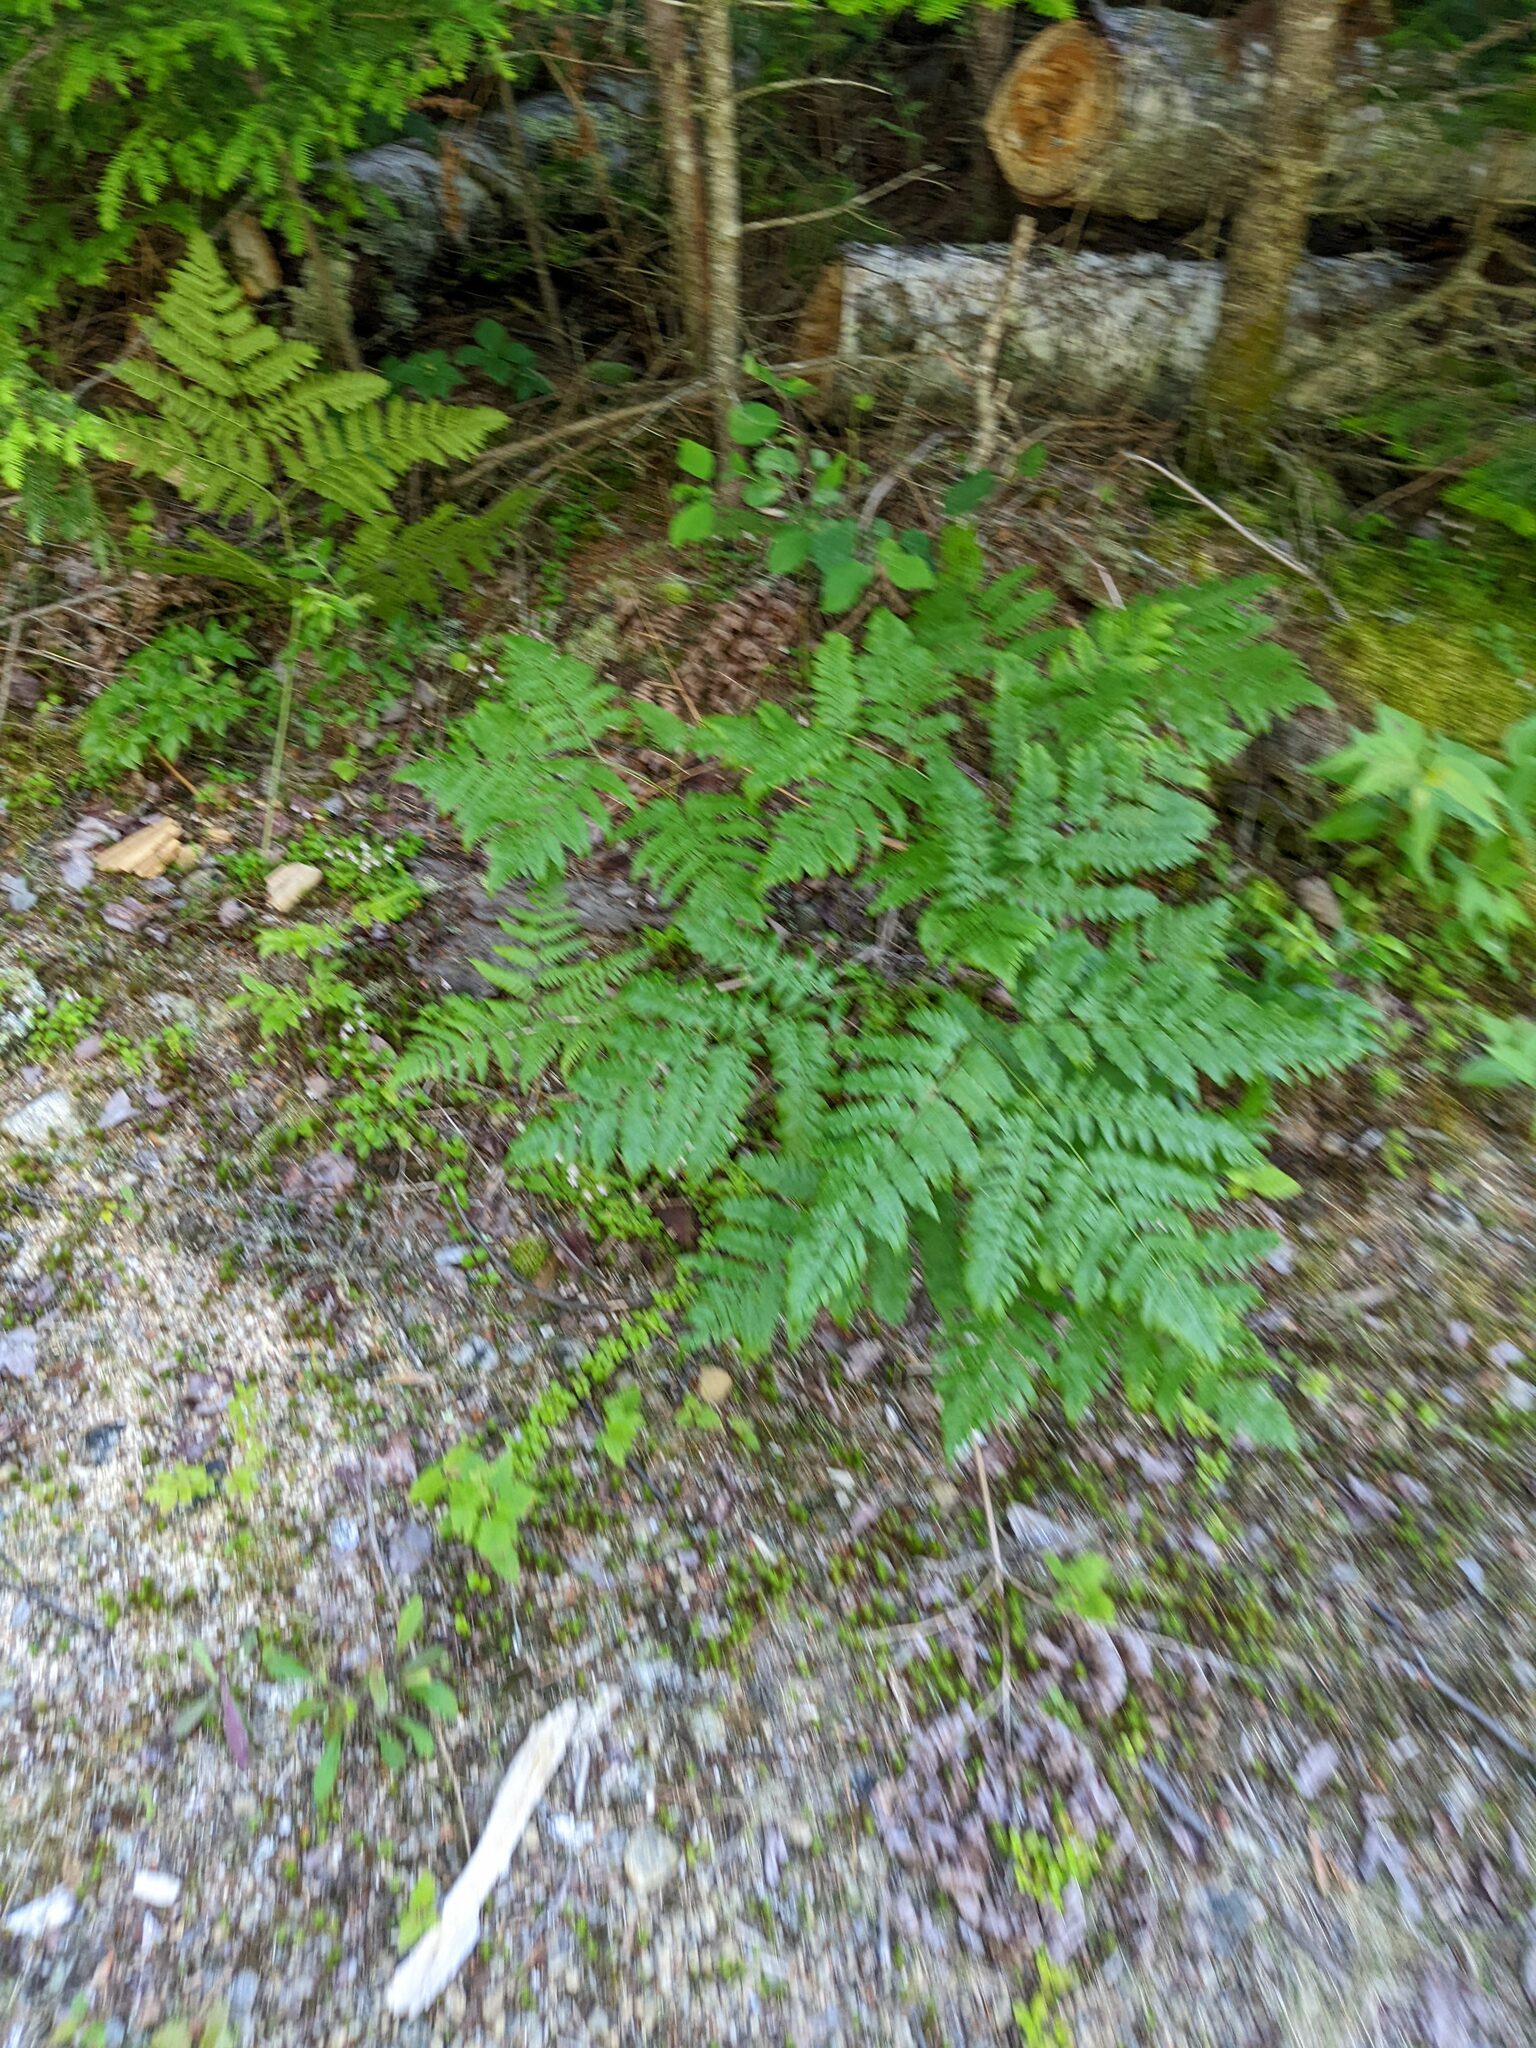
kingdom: Plantae
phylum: Tracheophyta
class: Polypodiopsida
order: Polypodiales
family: Dennstaedtiaceae
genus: Pteridium
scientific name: Pteridium aquilinum
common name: Bracken
